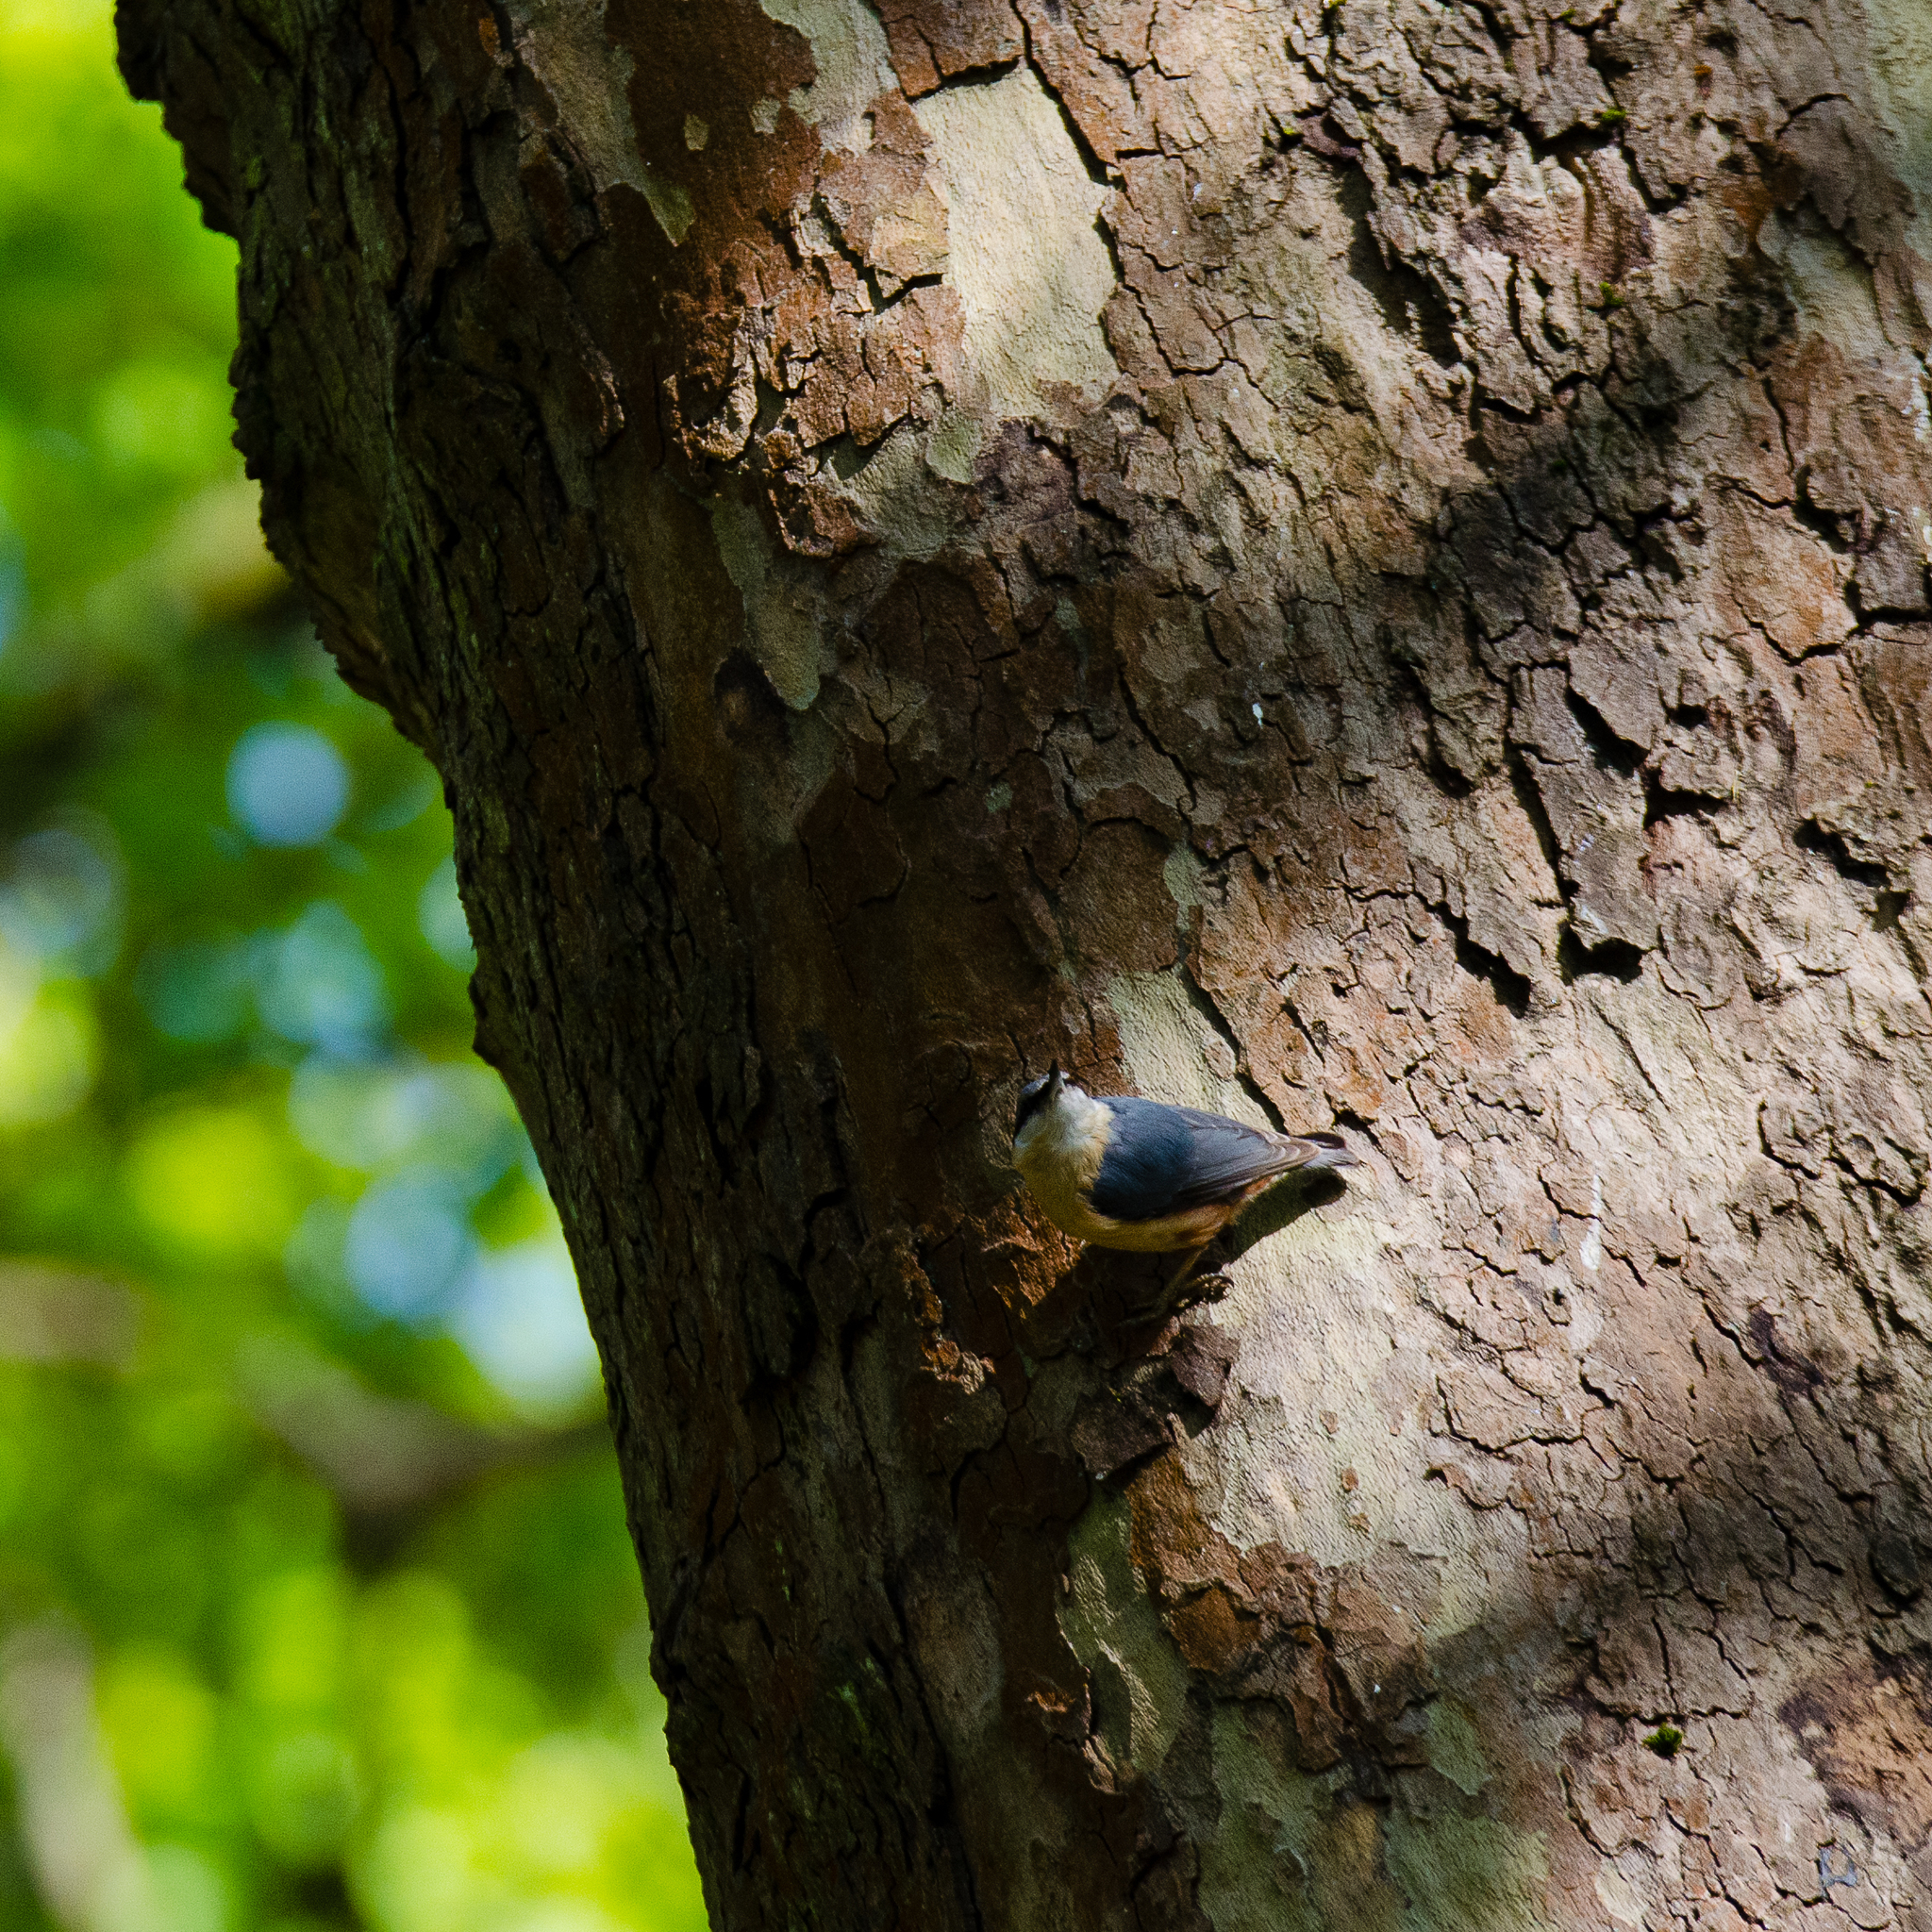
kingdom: Animalia
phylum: Chordata
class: Aves
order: Passeriformes
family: Sittidae
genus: Sitta
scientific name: Sitta europaea
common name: Eurasian nuthatch
